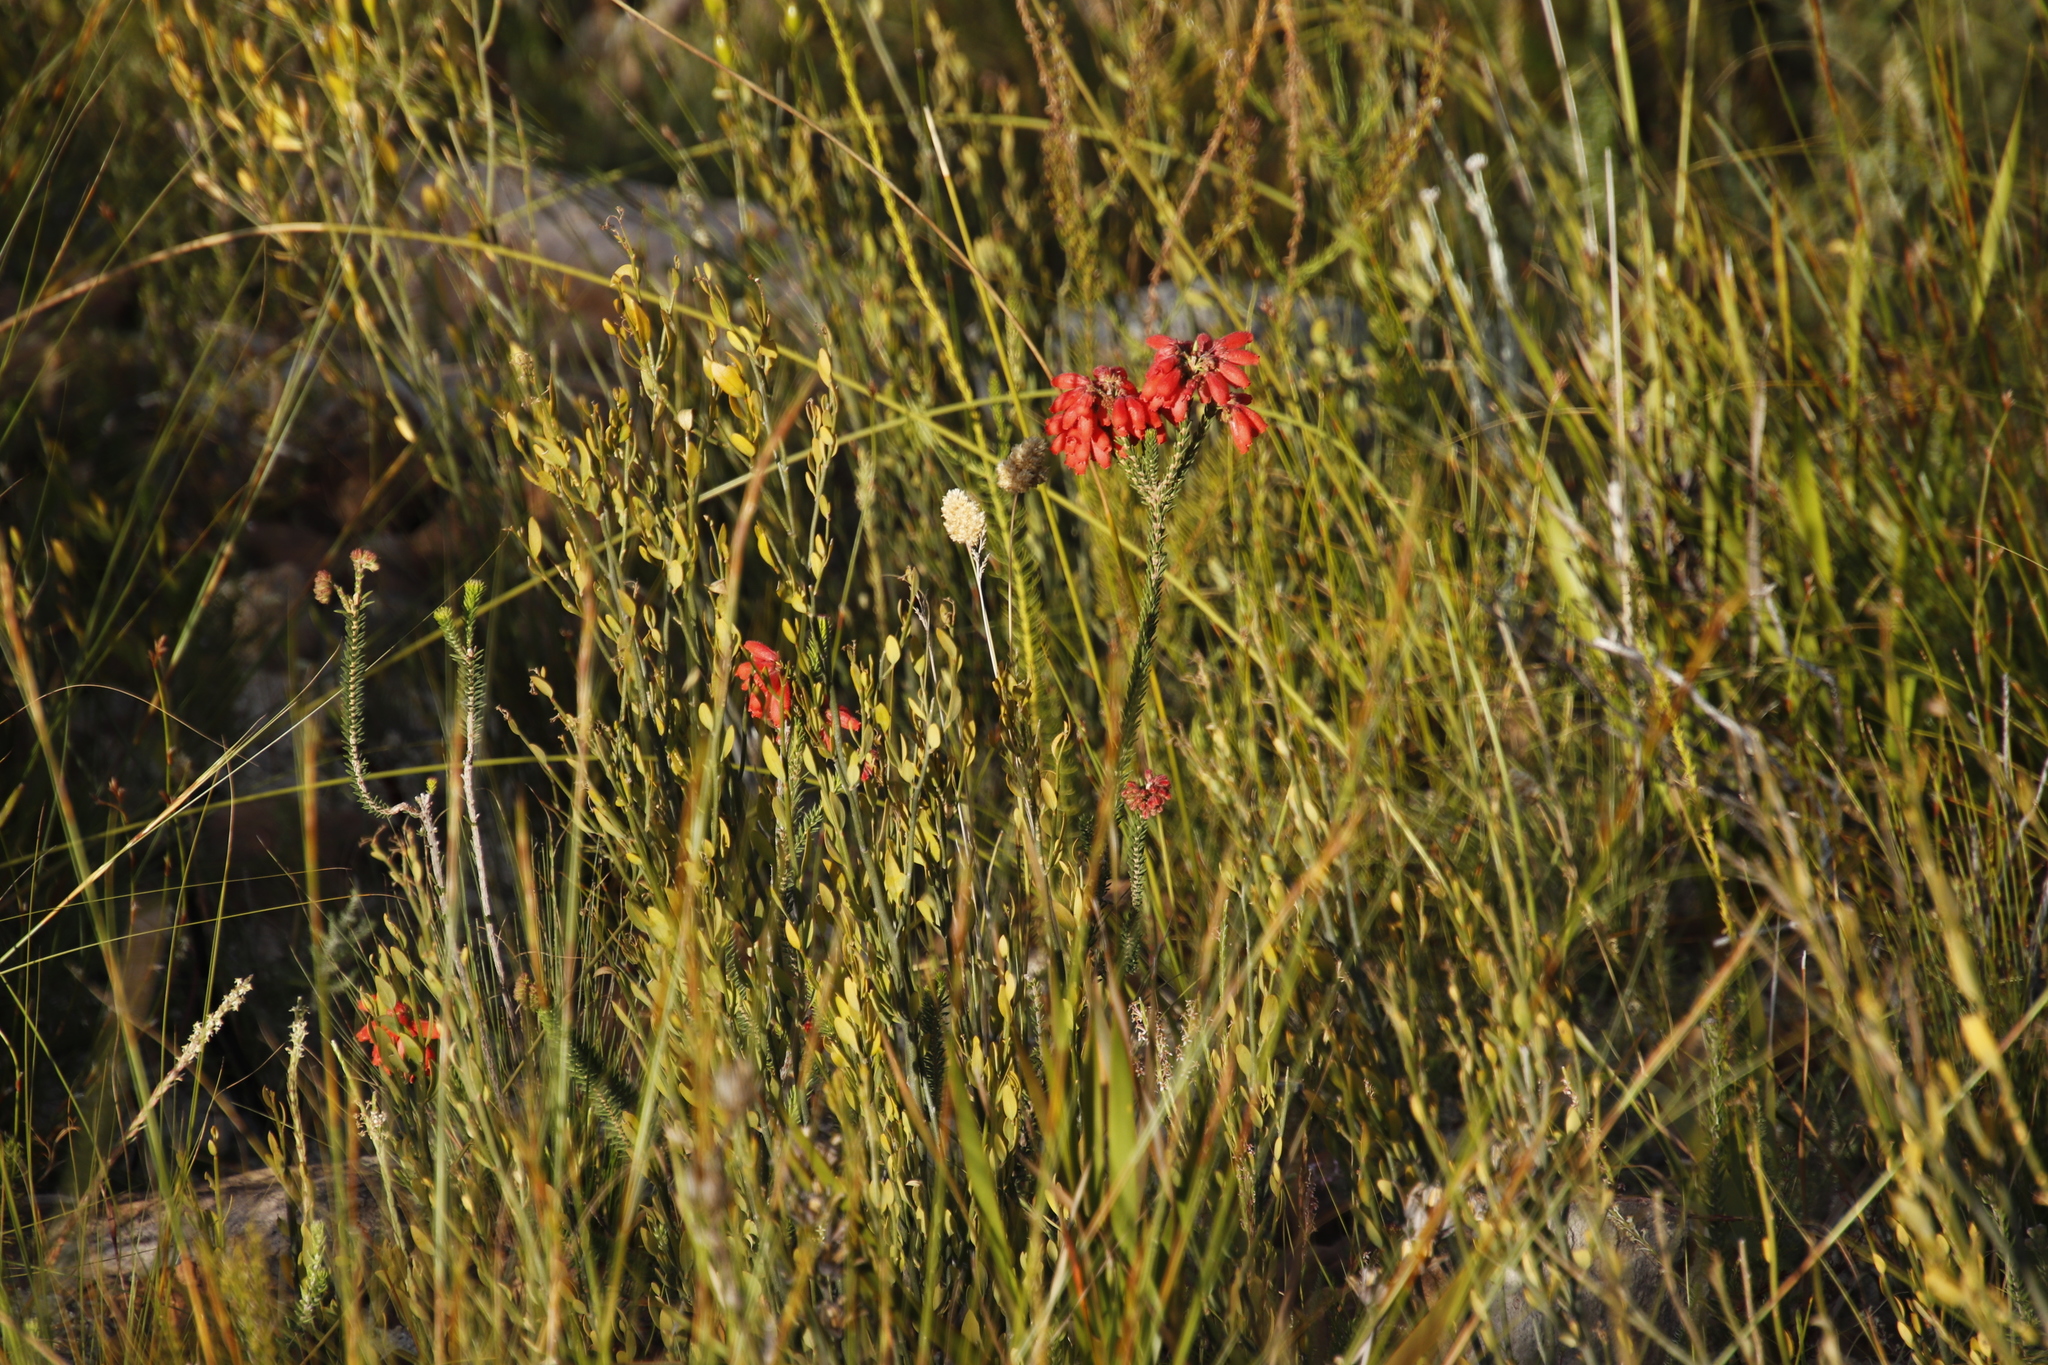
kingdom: Plantae
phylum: Tracheophyta
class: Magnoliopsida
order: Ericales
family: Ericaceae
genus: Erica
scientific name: Erica cerinthoides
